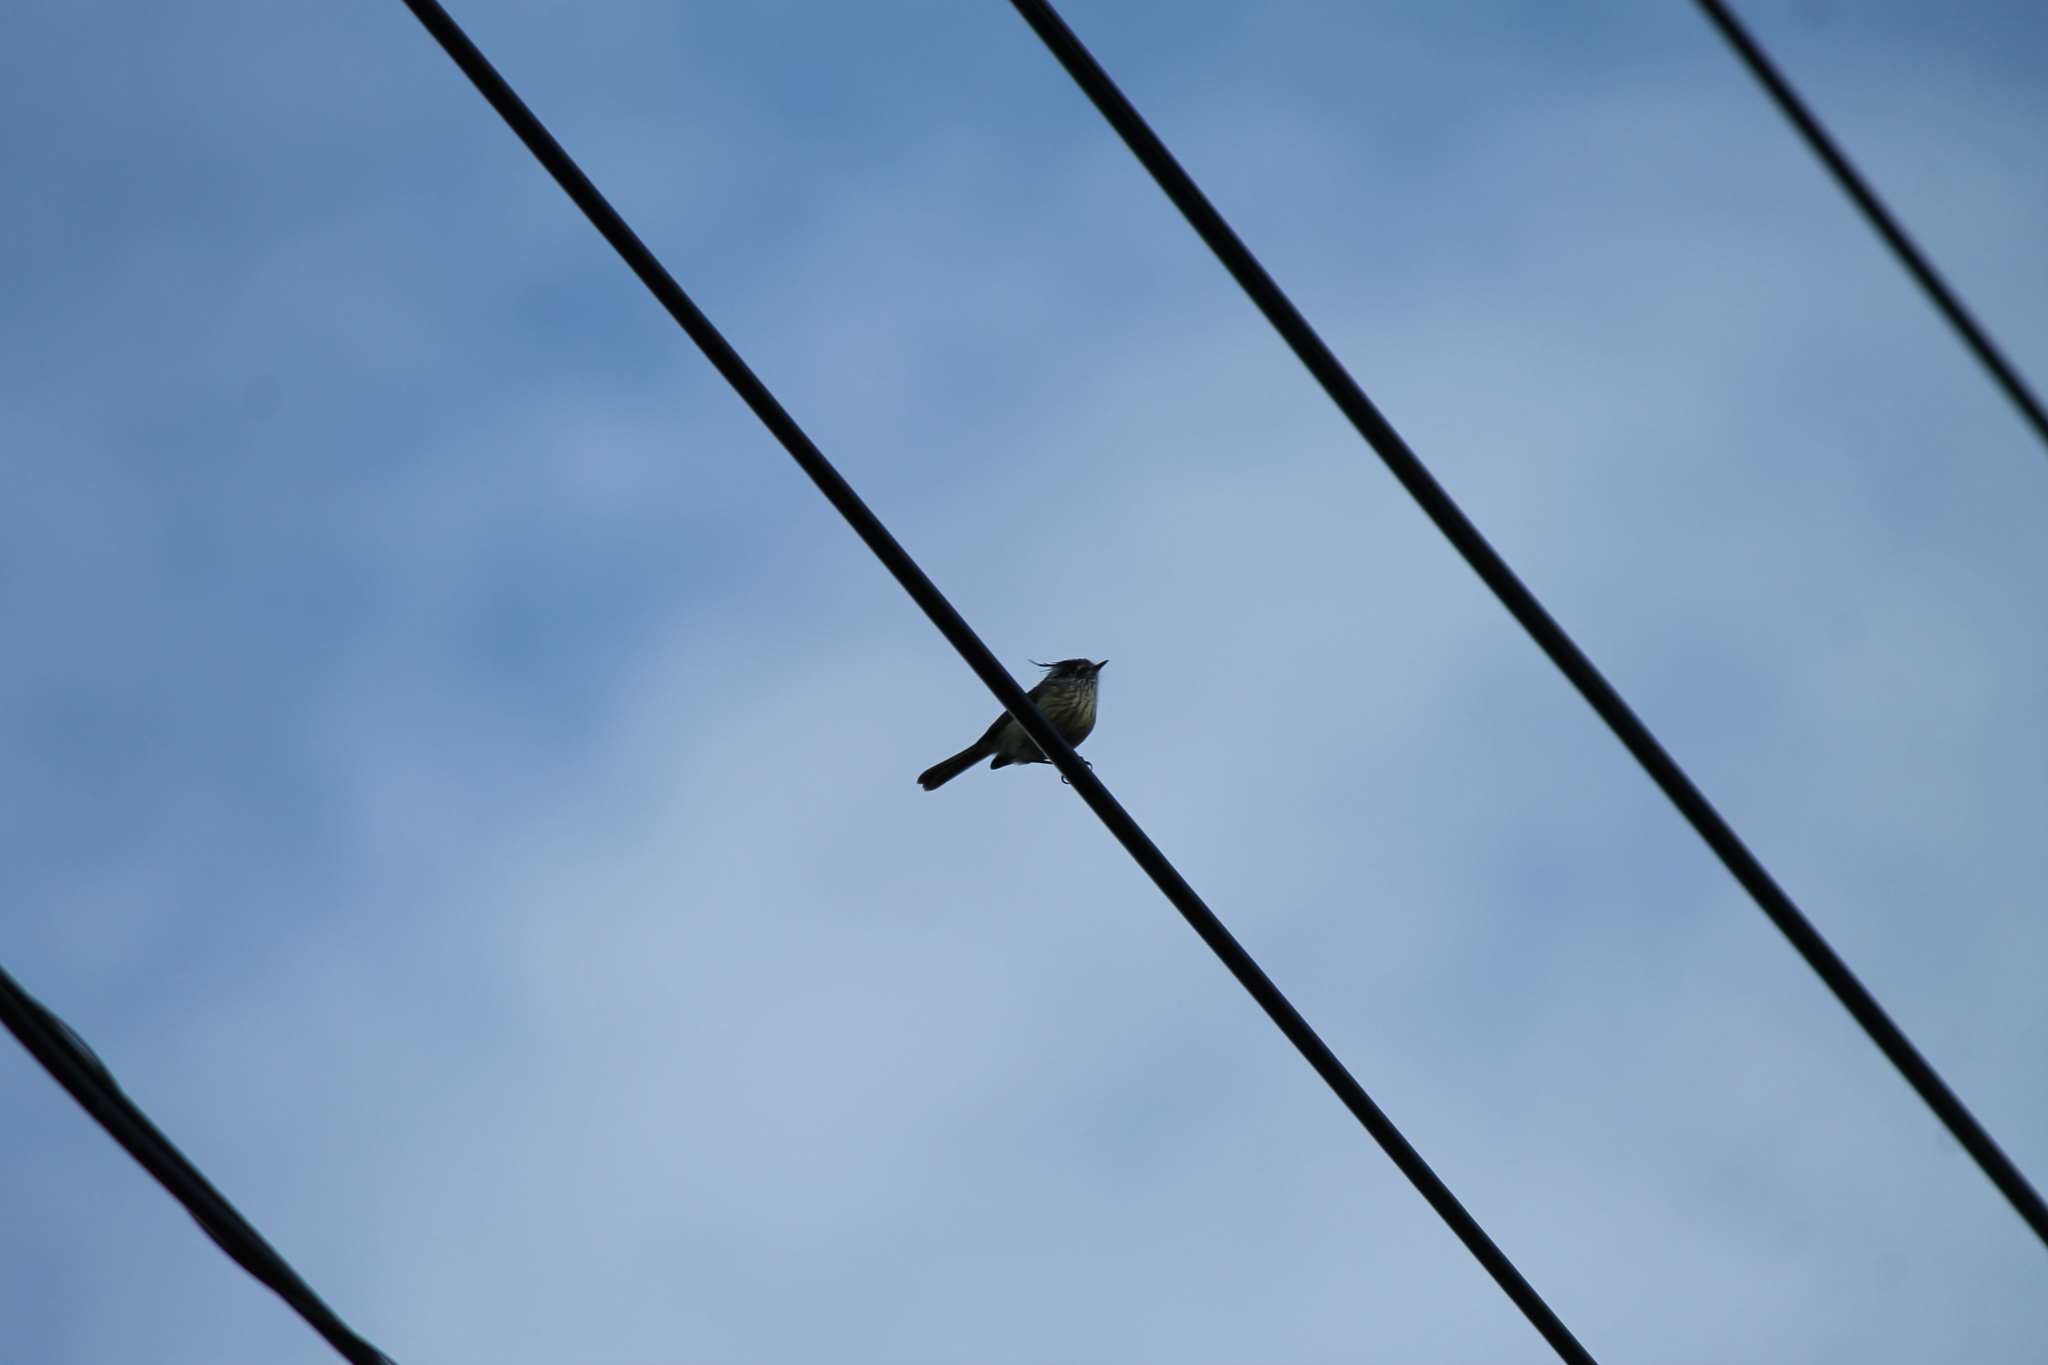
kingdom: Animalia
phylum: Chordata
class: Aves
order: Passeriformes
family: Tyrannidae
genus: Anairetes
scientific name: Anairetes parulus
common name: Tufted tit-tyrant
